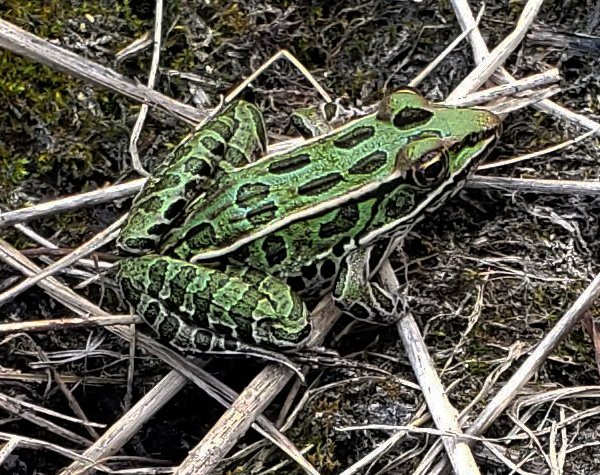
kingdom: Animalia
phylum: Chordata
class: Amphibia
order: Anura
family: Ranidae
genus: Lithobates
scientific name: Lithobates pipiens
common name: Northern leopard frog
